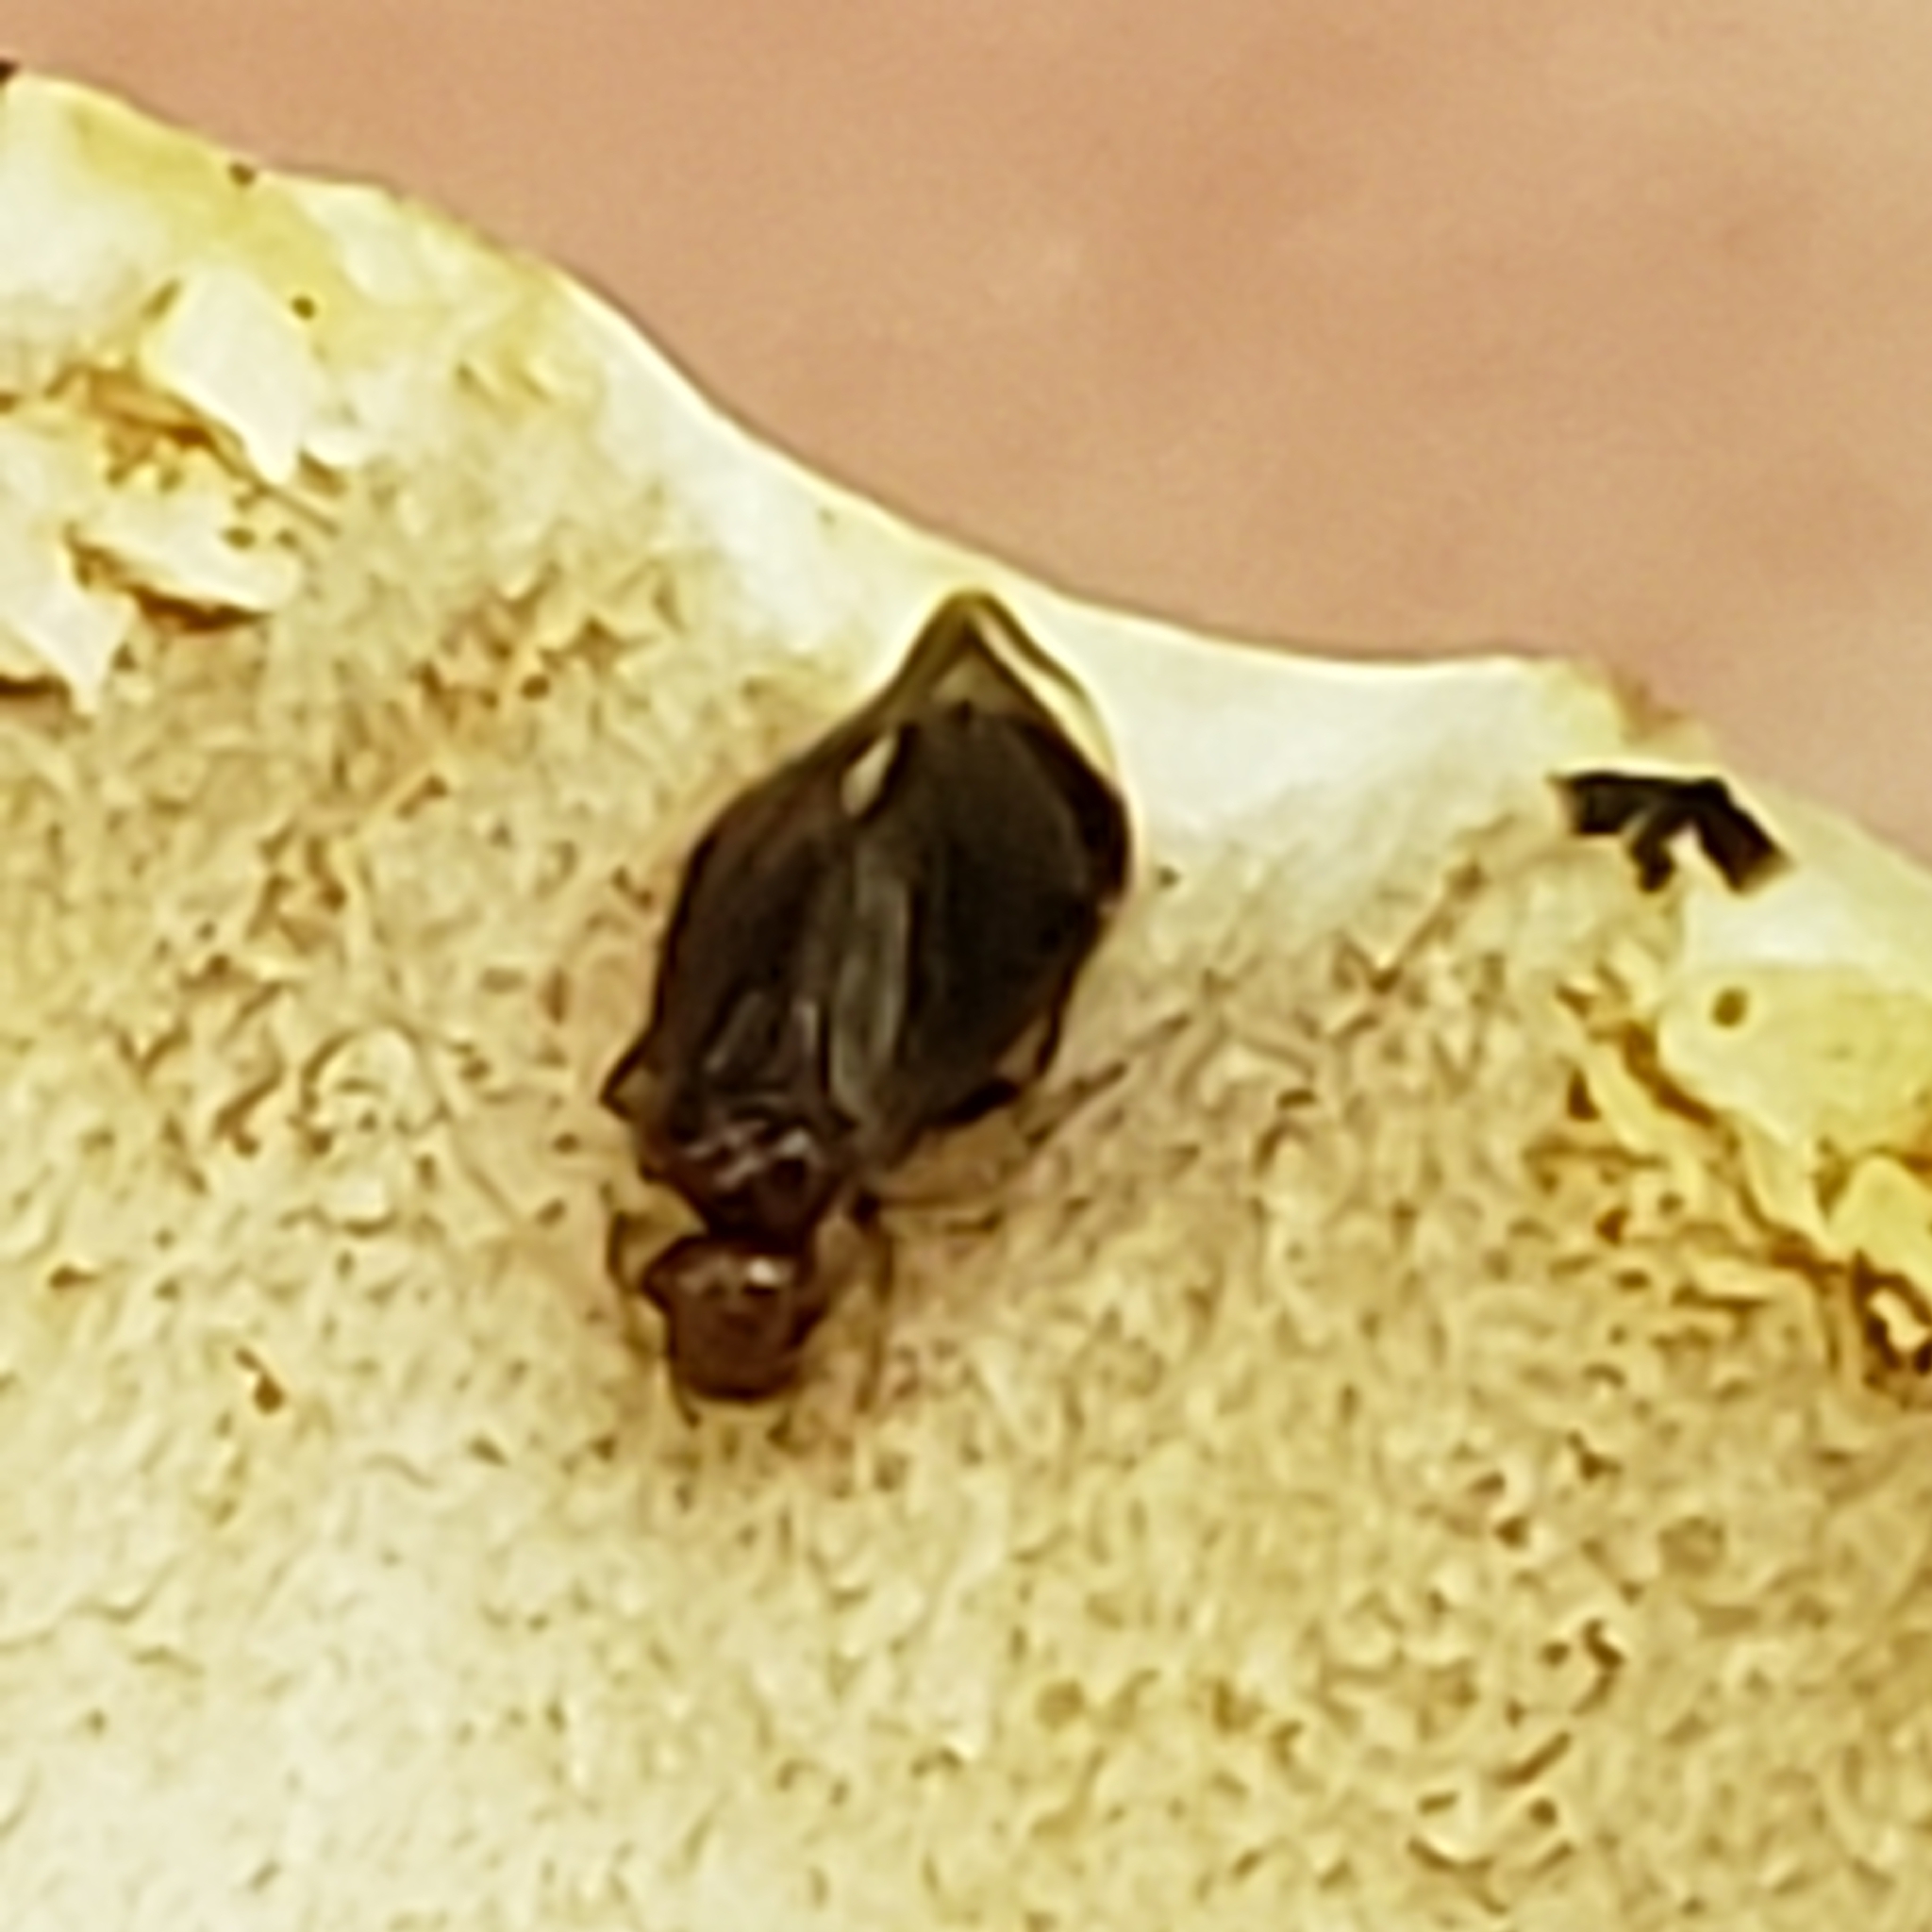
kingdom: Animalia
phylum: Arthropoda
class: Insecta
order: Psocodea
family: Amphipsocidae
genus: Polypsocus
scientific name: Polypsocus corruptus
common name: Corrupt barklouse
